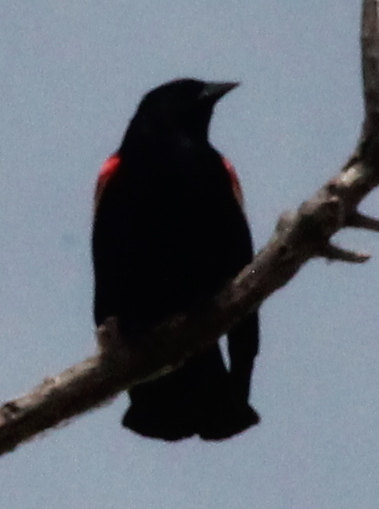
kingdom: Animalia
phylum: Chordata
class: Aves
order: Passeriformes
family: Icteridae
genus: Agelaius
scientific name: Agelaius phoeniceus
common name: Red-winged blackbird
